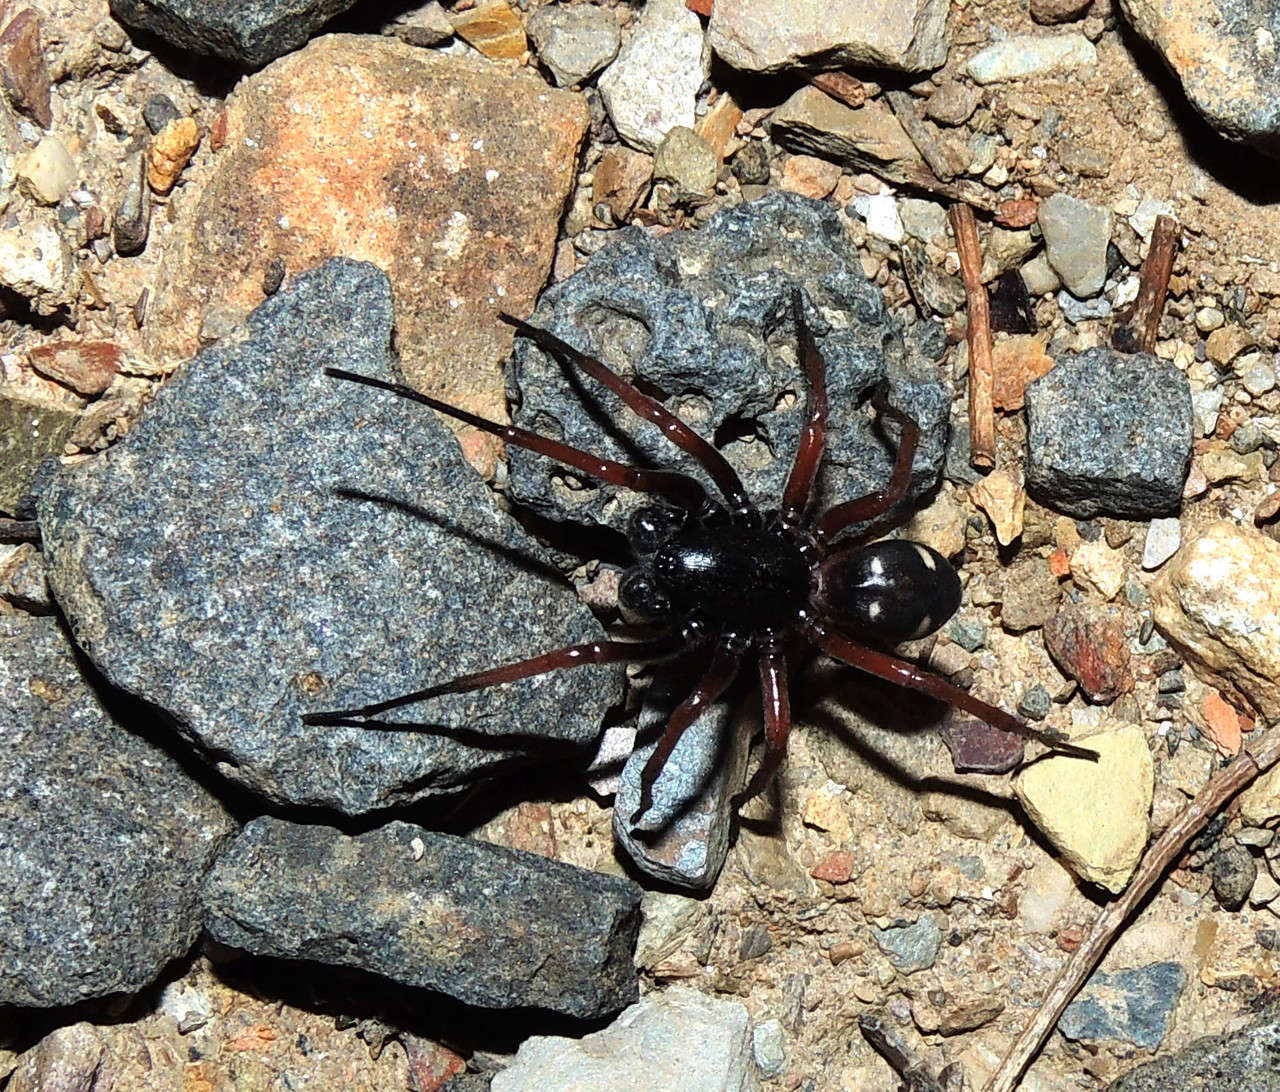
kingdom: Animalia
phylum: Arthropoda
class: Arachnida
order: Araneae
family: Zodariidae
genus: Storena
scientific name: Storena
